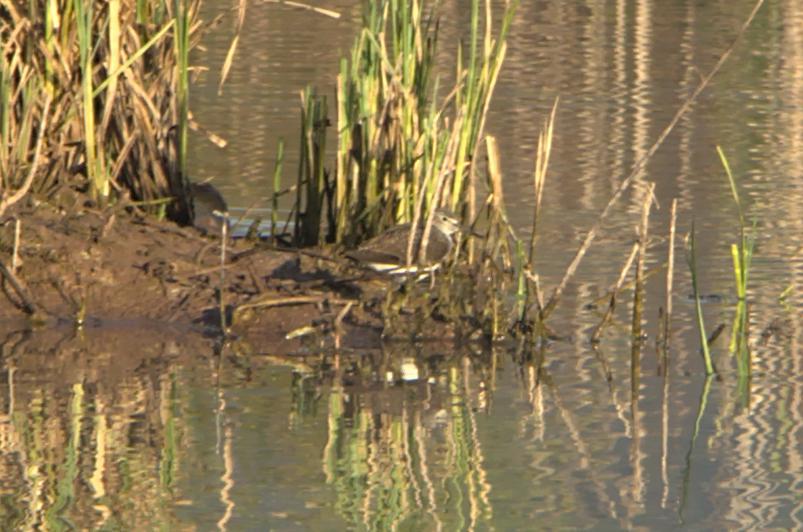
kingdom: Animalia
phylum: Chordata
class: Aves
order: Charadriiformes
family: Scolopacidae
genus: Tringa
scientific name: Tringa ochropus
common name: Green sandpiper
